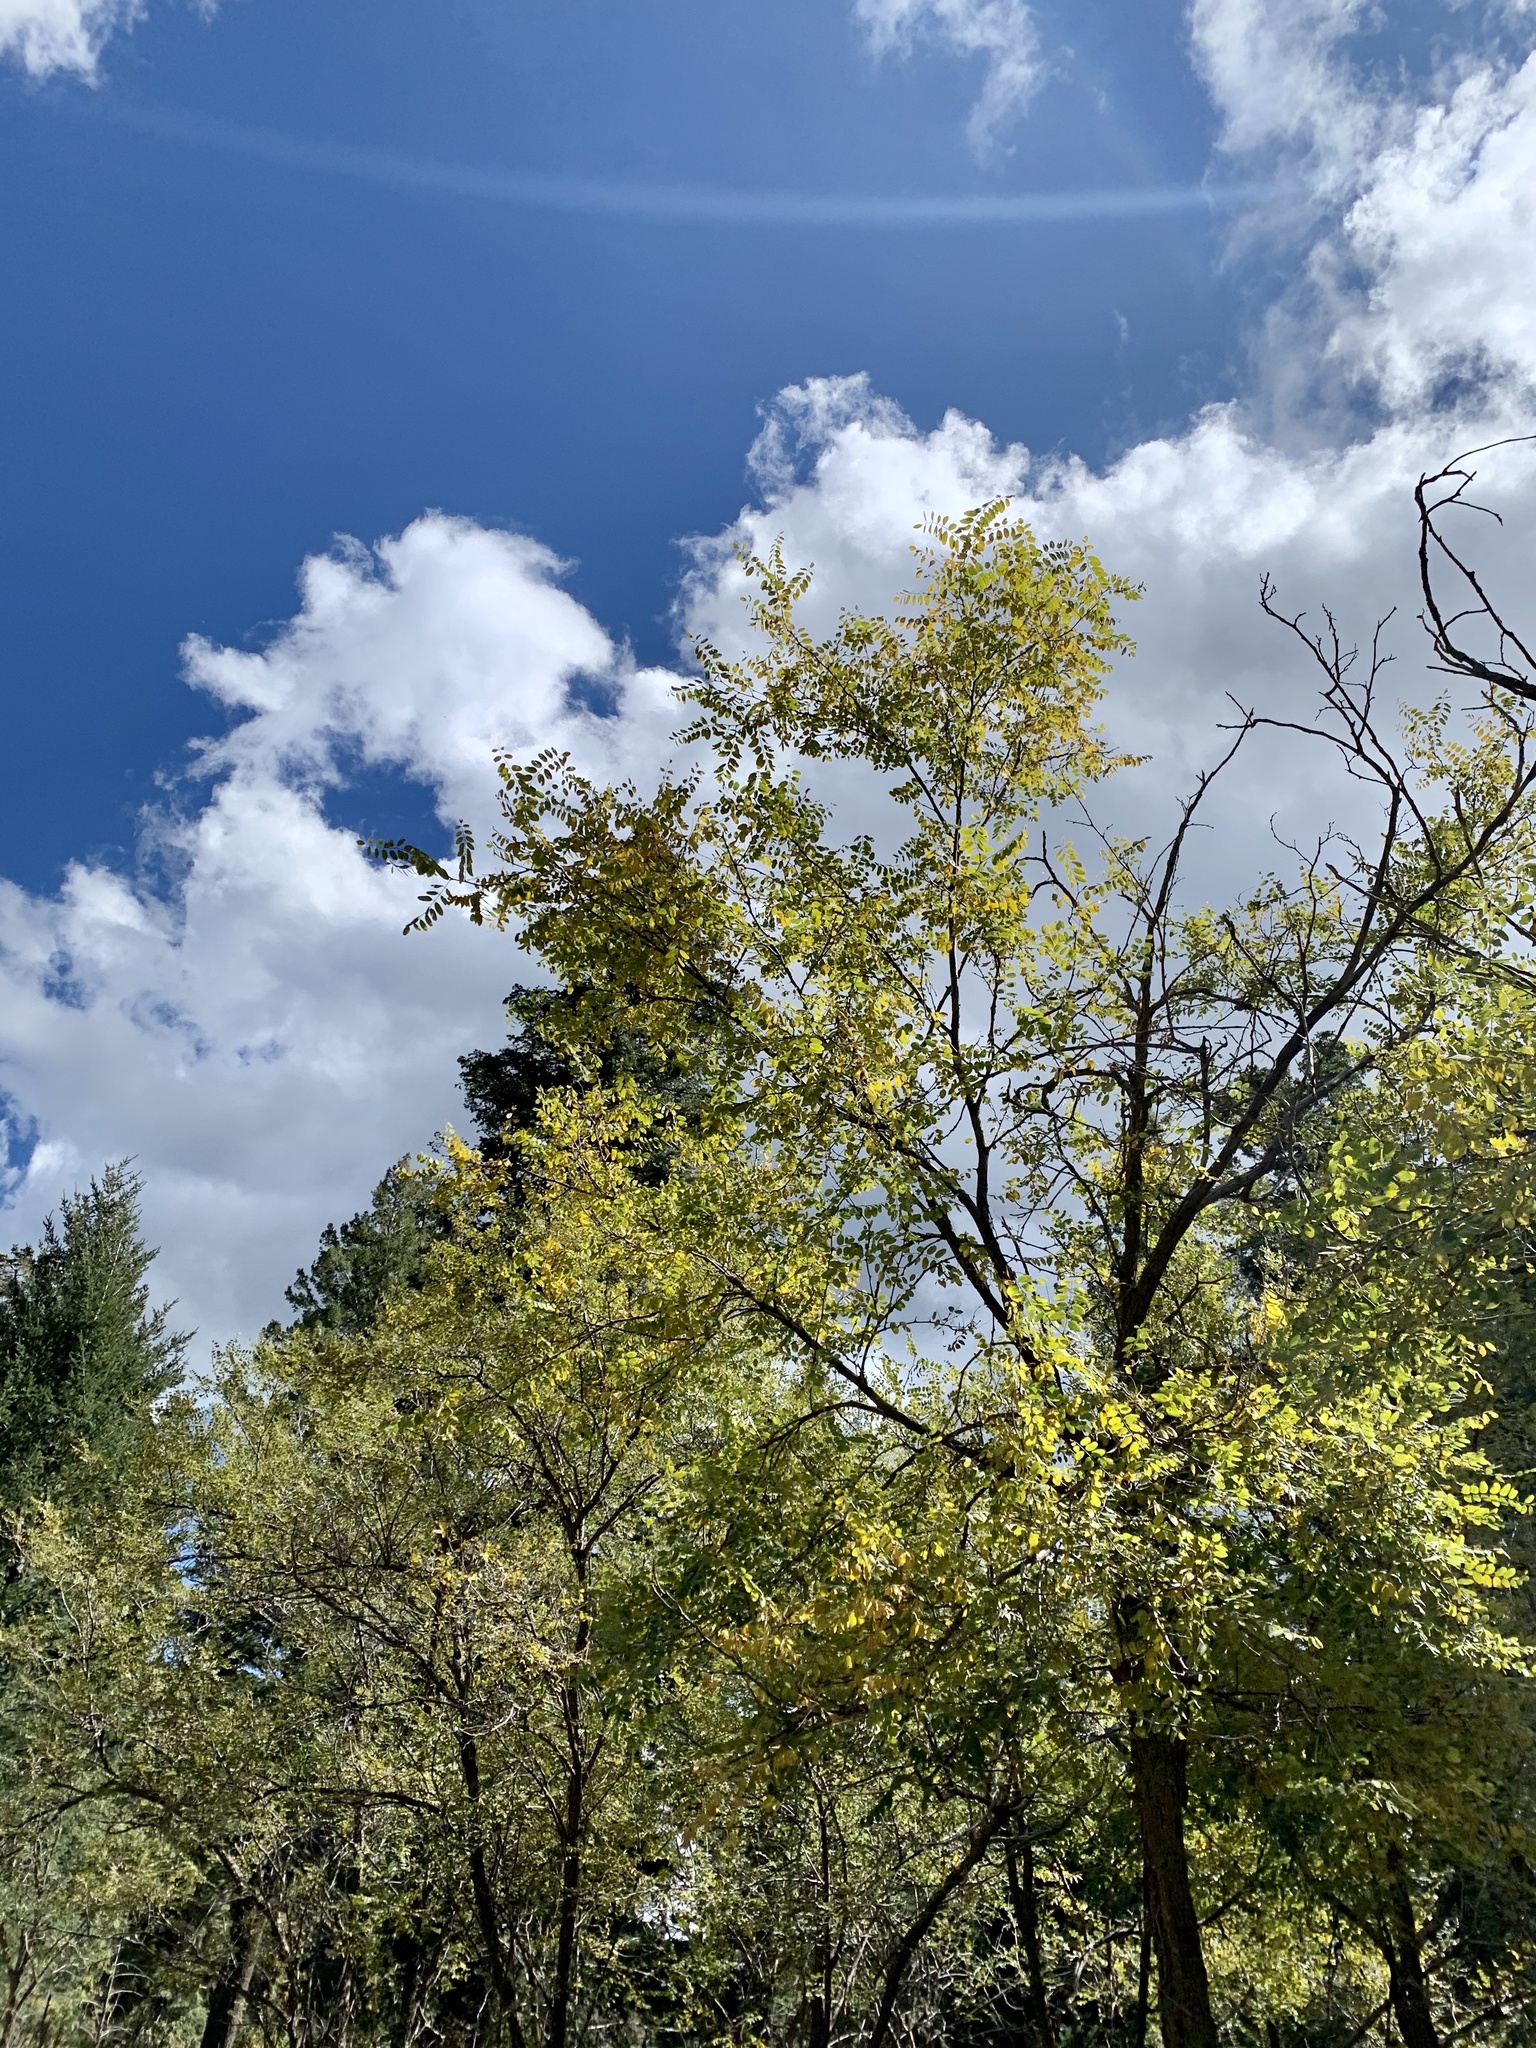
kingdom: Plantae
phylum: Tracheophyta
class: Magnoliopsida
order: Fabales
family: Fabaceae
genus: Robinia
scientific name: Robinia neomexicana
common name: New mexico locust
